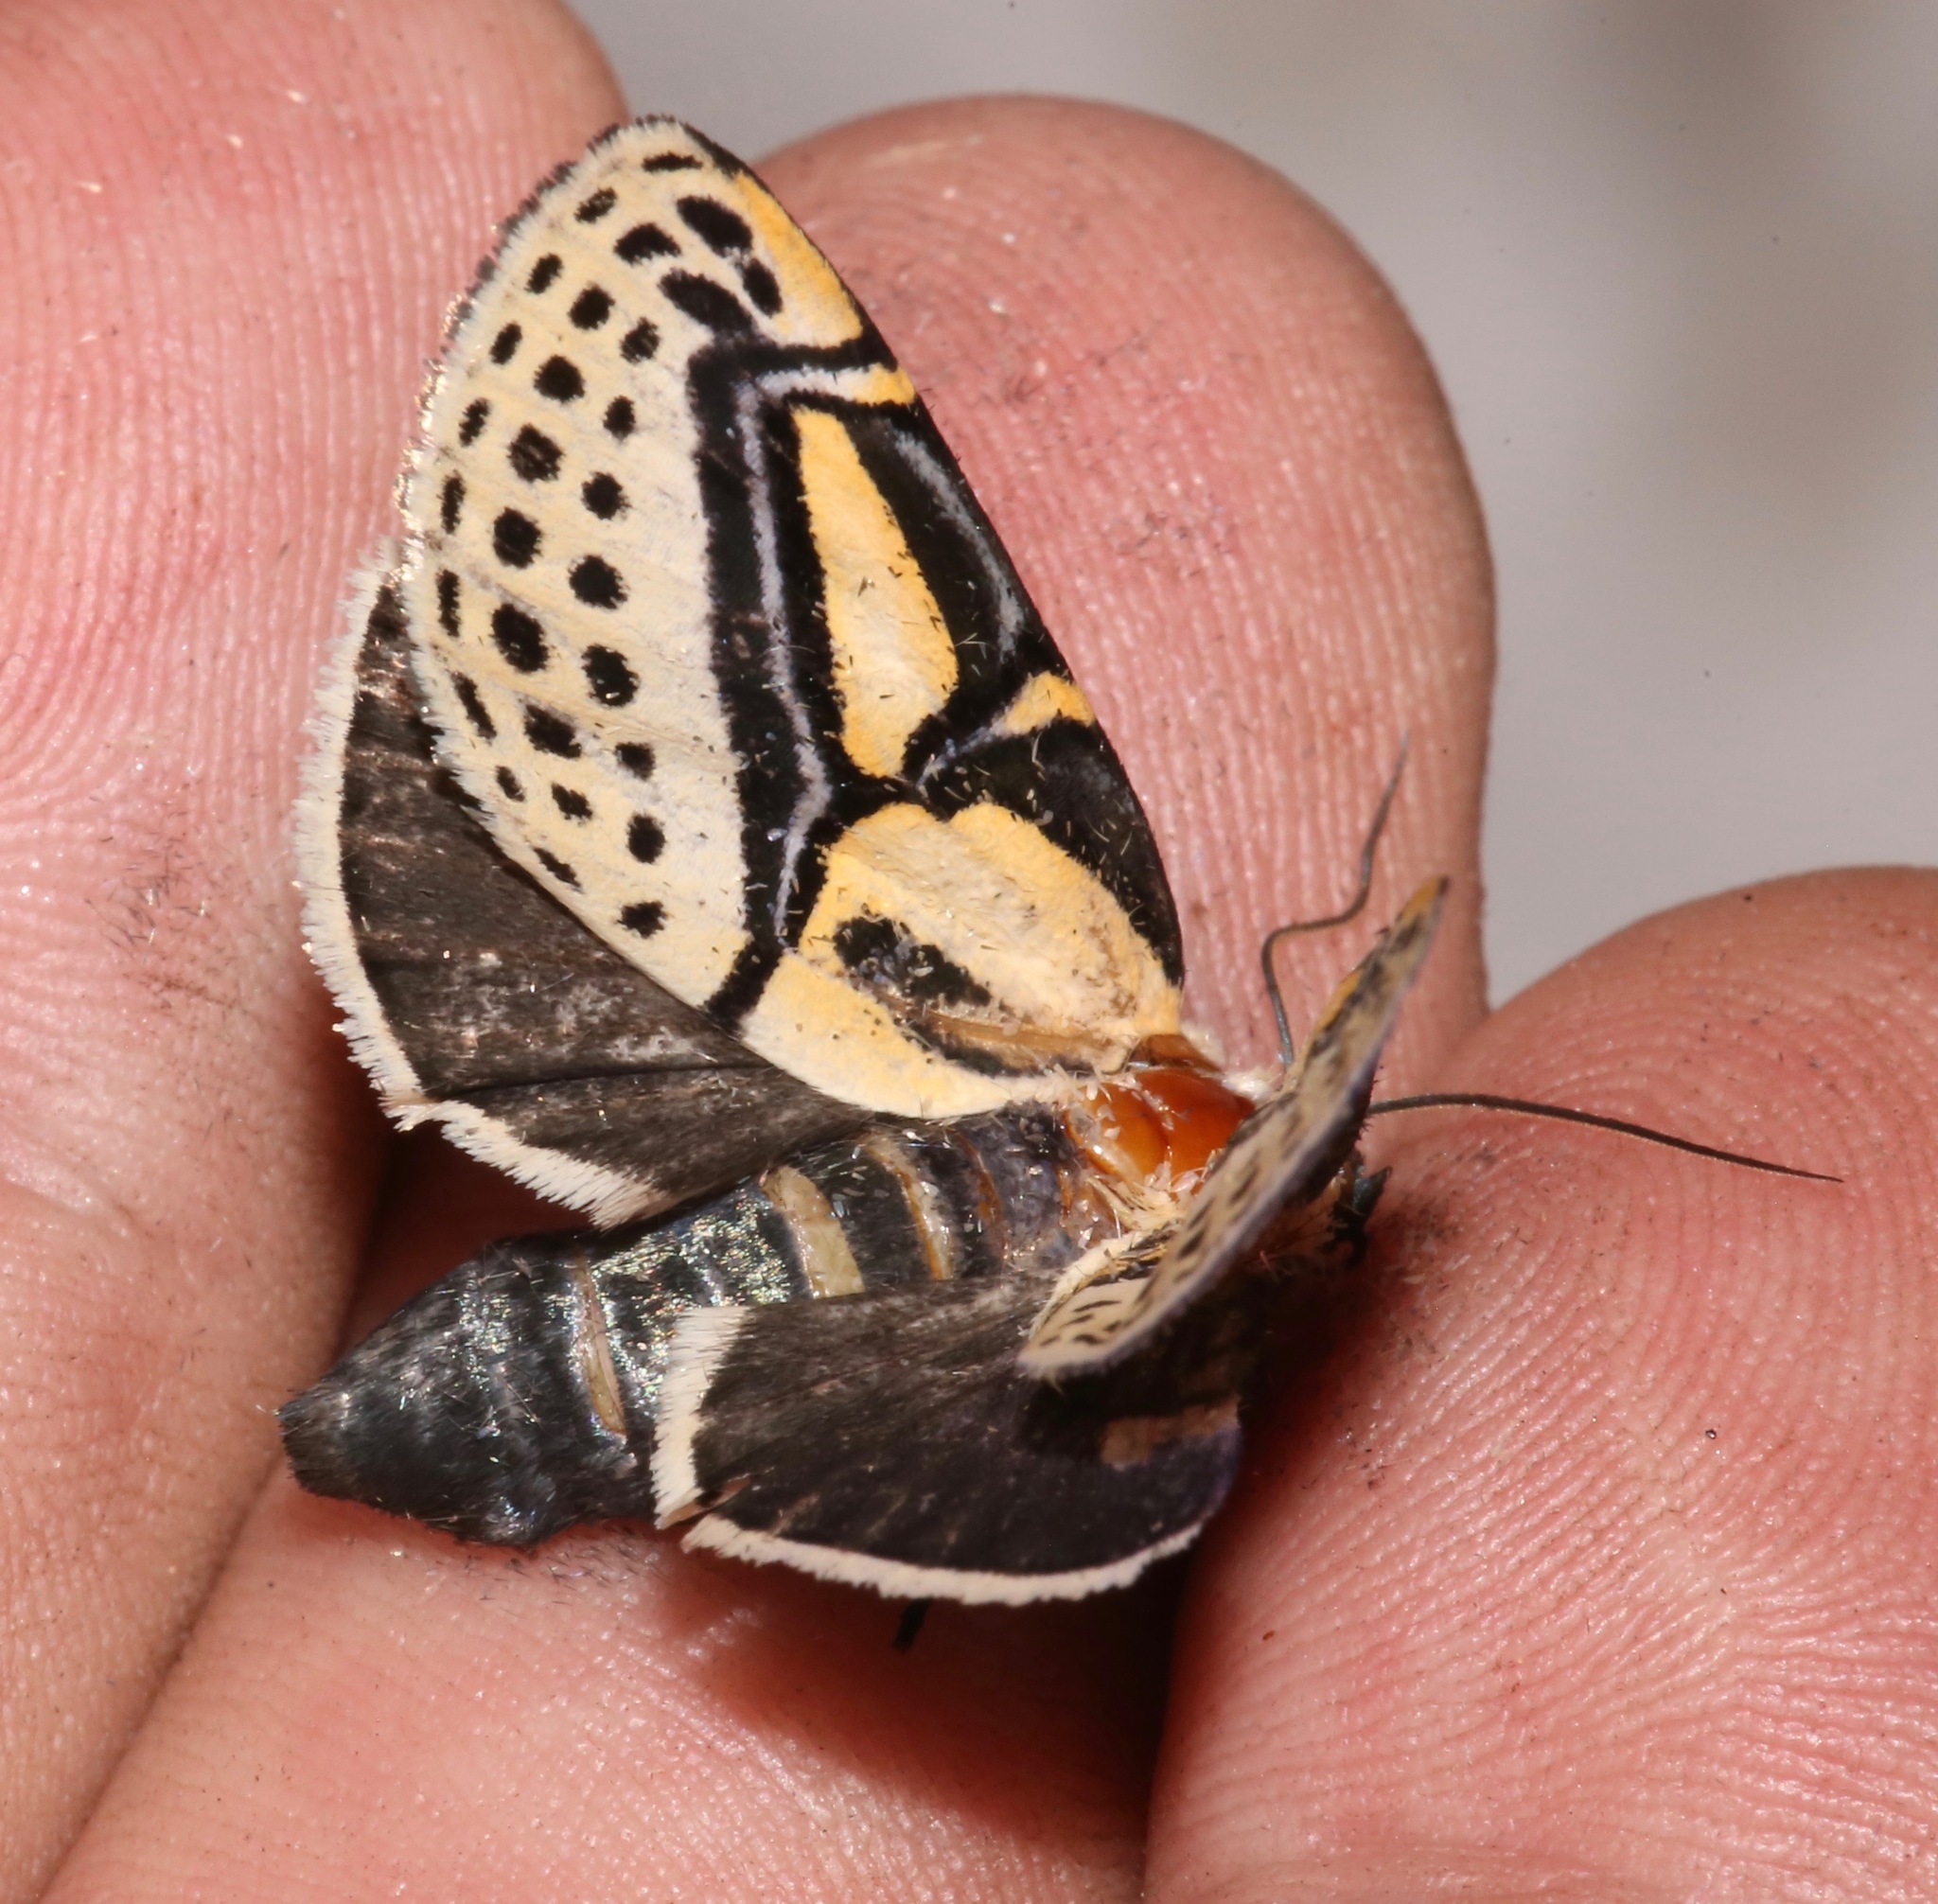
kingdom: Animalia
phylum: Arthropoda
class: Insecta
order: Lepidoptera
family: Erebidae
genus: Diphthera
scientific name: Diphthera festiva
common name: Hieroglyphic moth
